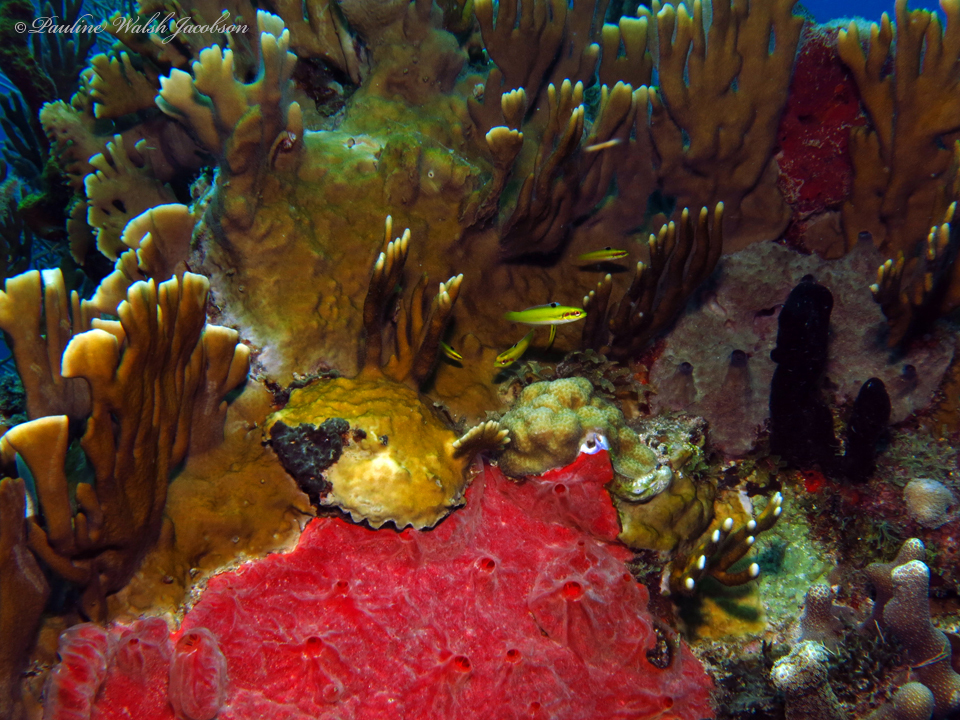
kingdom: Animalia
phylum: Chordata
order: Perciformes
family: Labridae
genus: Thalassoma
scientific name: Thalassoma bifasciatum
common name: Bluehead wrasse
